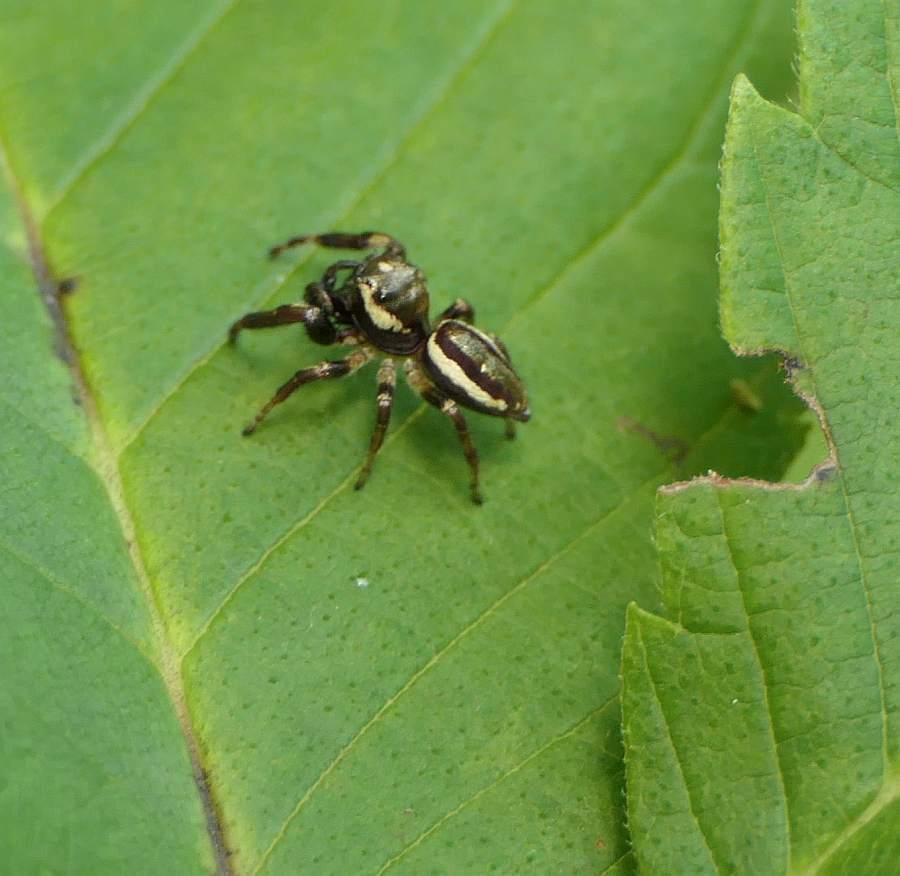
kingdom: Animalia
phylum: Arthropoda
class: Arachnida
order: Araneae
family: Salticidae
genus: Eris
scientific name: Eris militaris
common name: Bronze jumper
